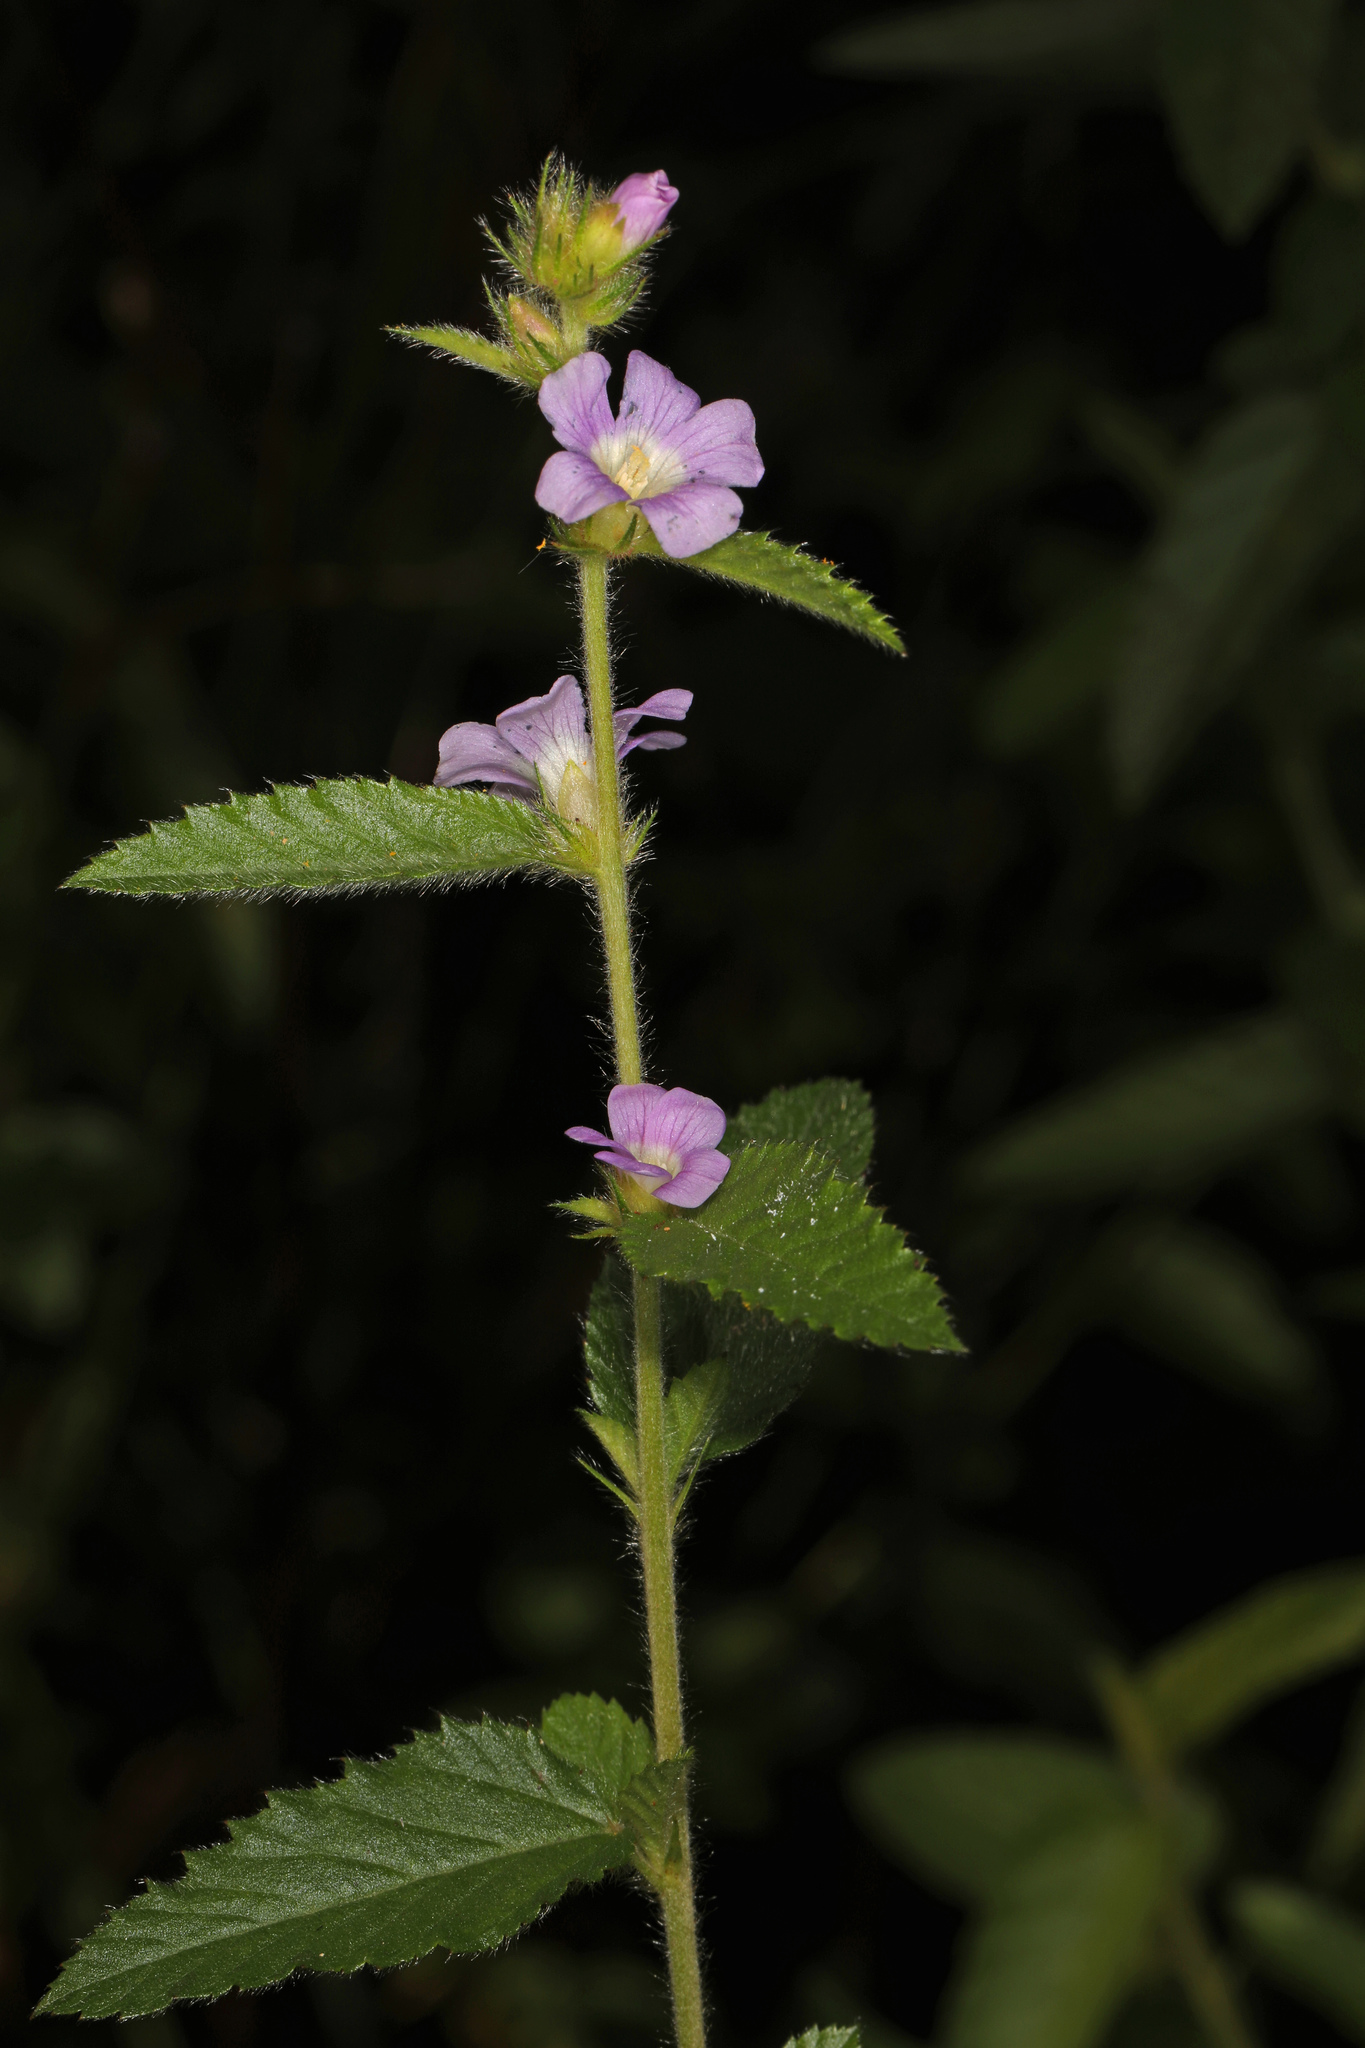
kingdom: Plantae
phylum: Tracheophyta
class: Magnoliopsida
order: Malvales
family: Malvaceae
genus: Melochia
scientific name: Melochia spicata
